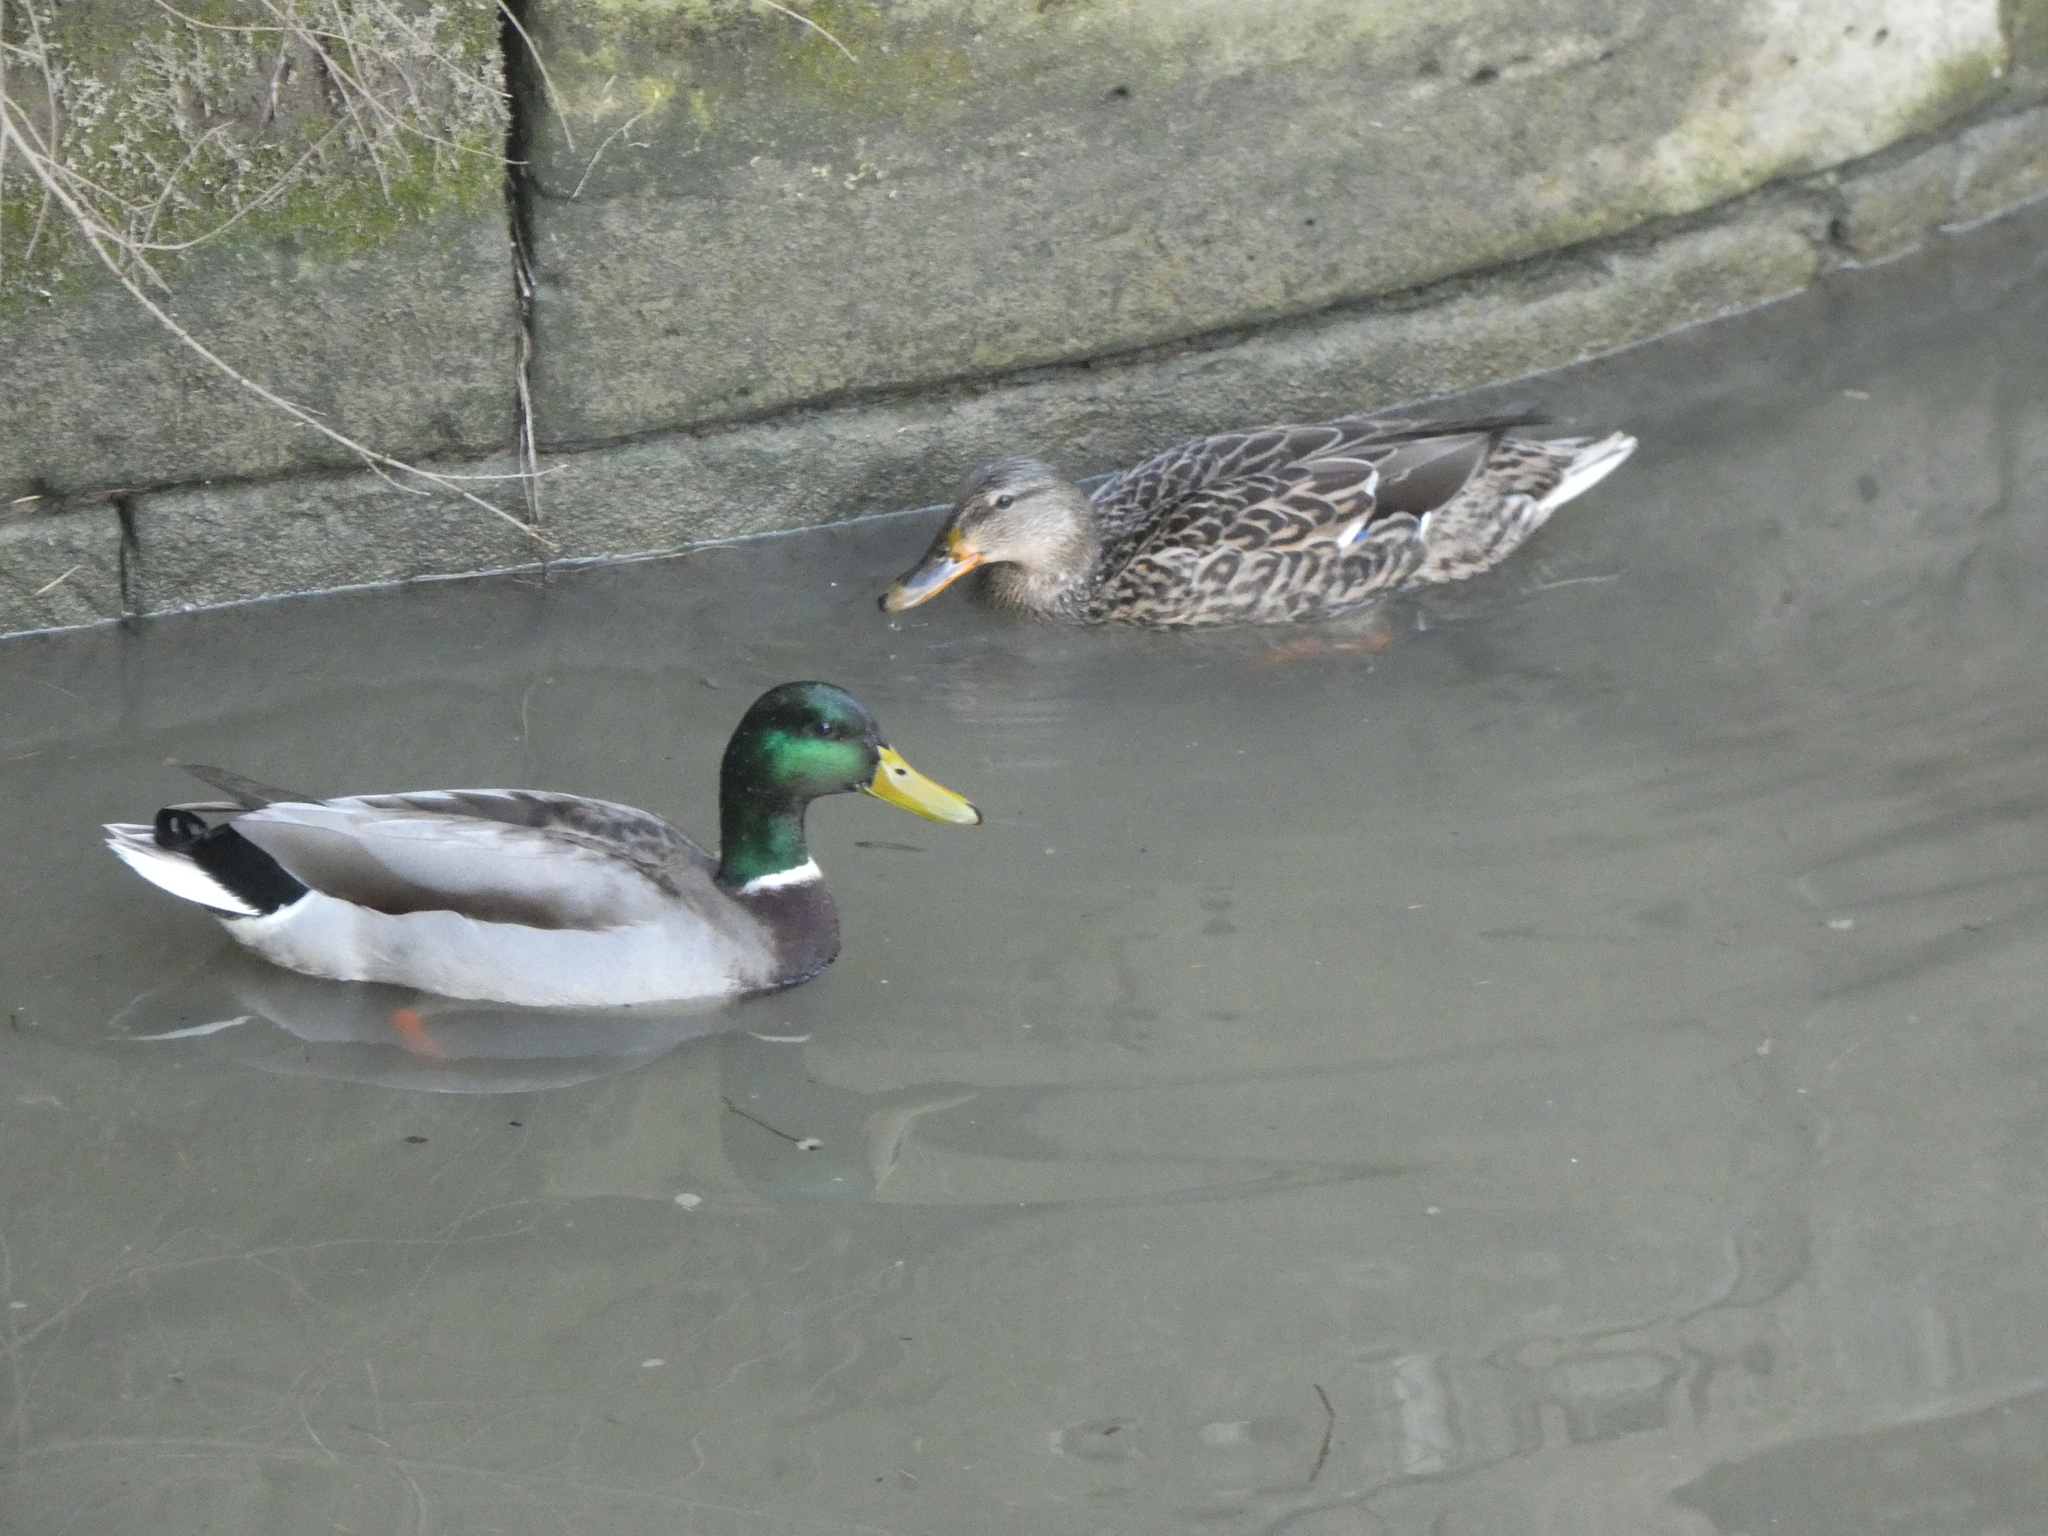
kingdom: Animalia
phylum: Chordata
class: Aves
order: Anseriformes
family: Anatidae
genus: Anas
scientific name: Anas platyrhynchos
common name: Mallard
